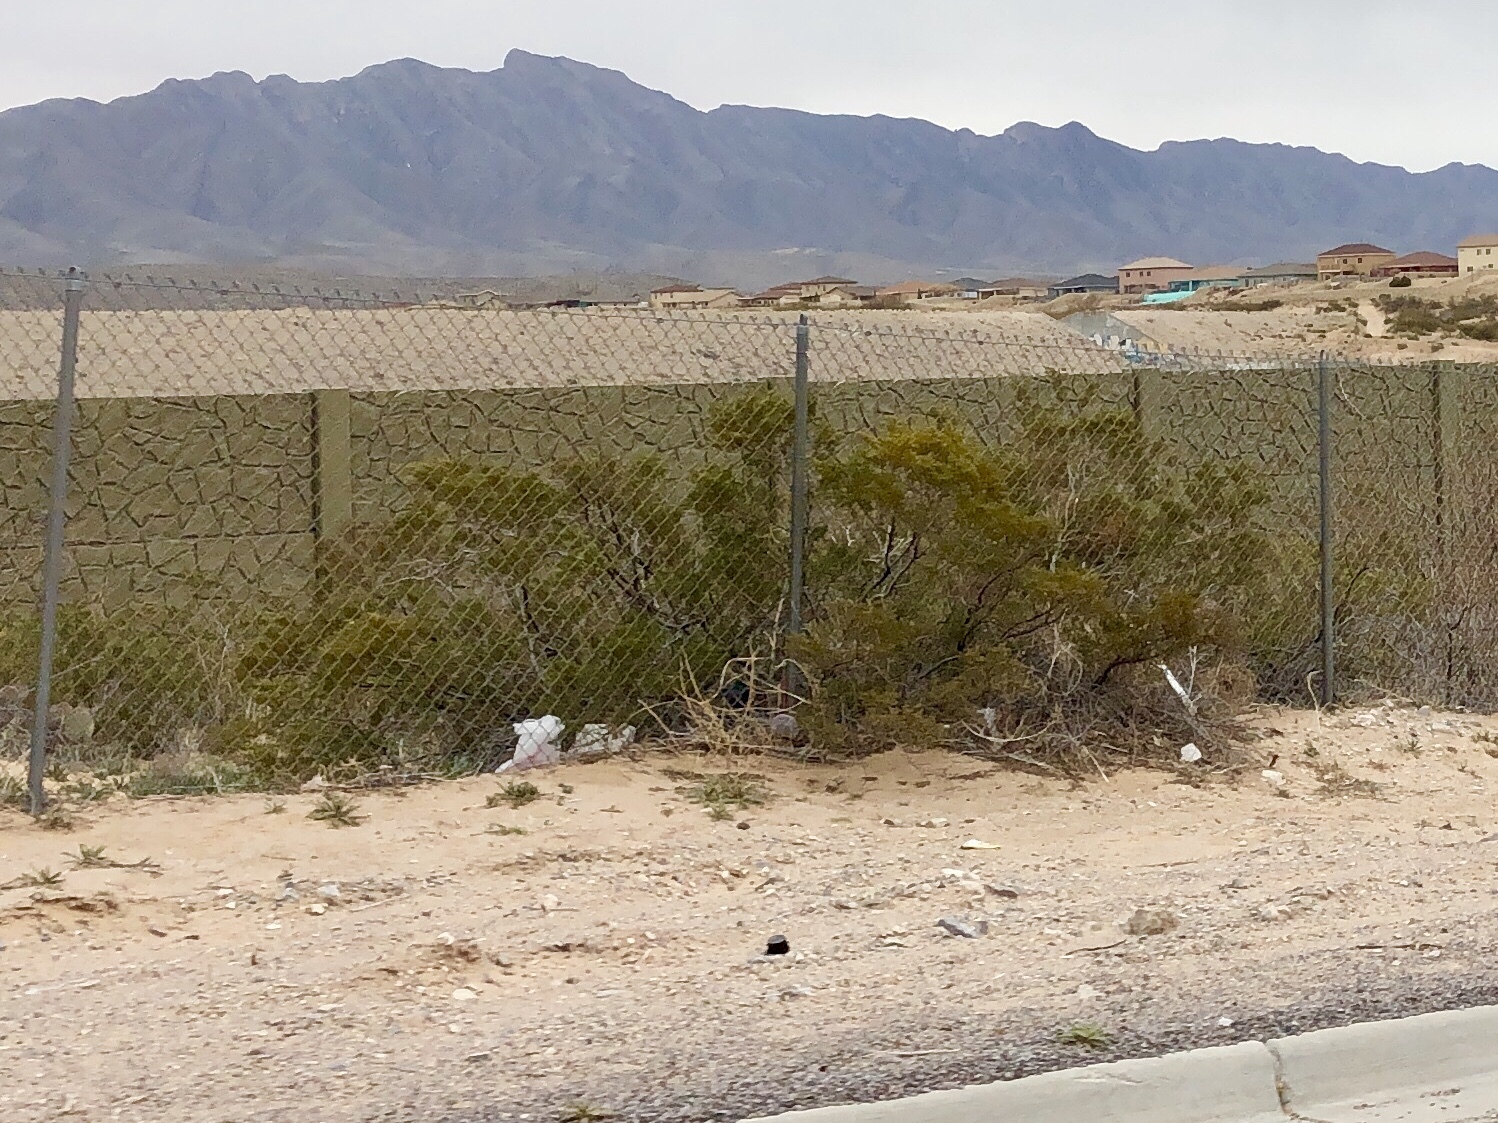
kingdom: Plantae
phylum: Tracheophyta
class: Magnoliopsida
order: Zygophyllales
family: Zygophyllaceae
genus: Larrea
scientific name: Larrea tridentata
